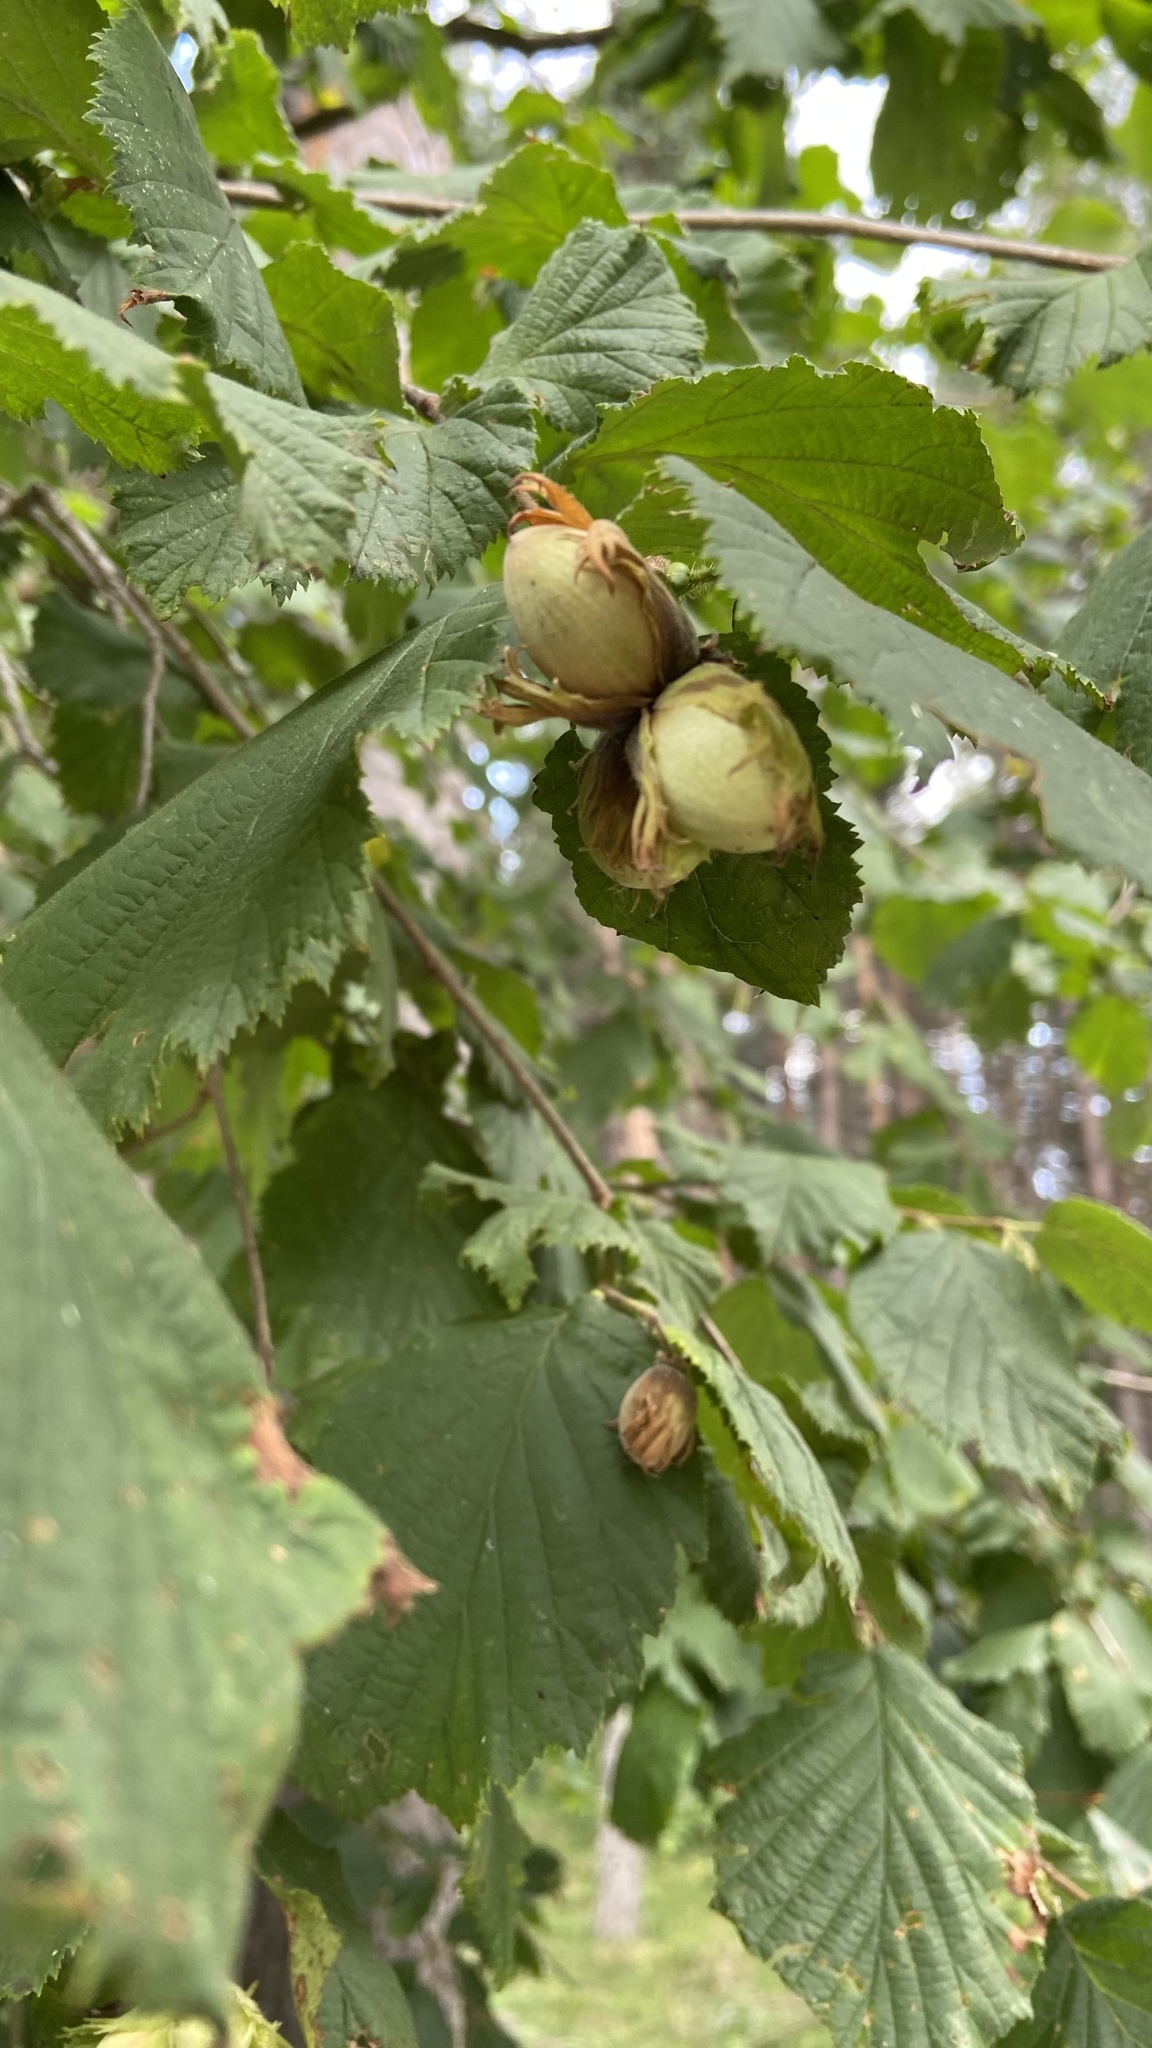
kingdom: Plantae
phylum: Tracheophyta
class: Magnoliopsida
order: Fagales
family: Betulaceae
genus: Corylus
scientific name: Corylus avellana
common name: European hazel
